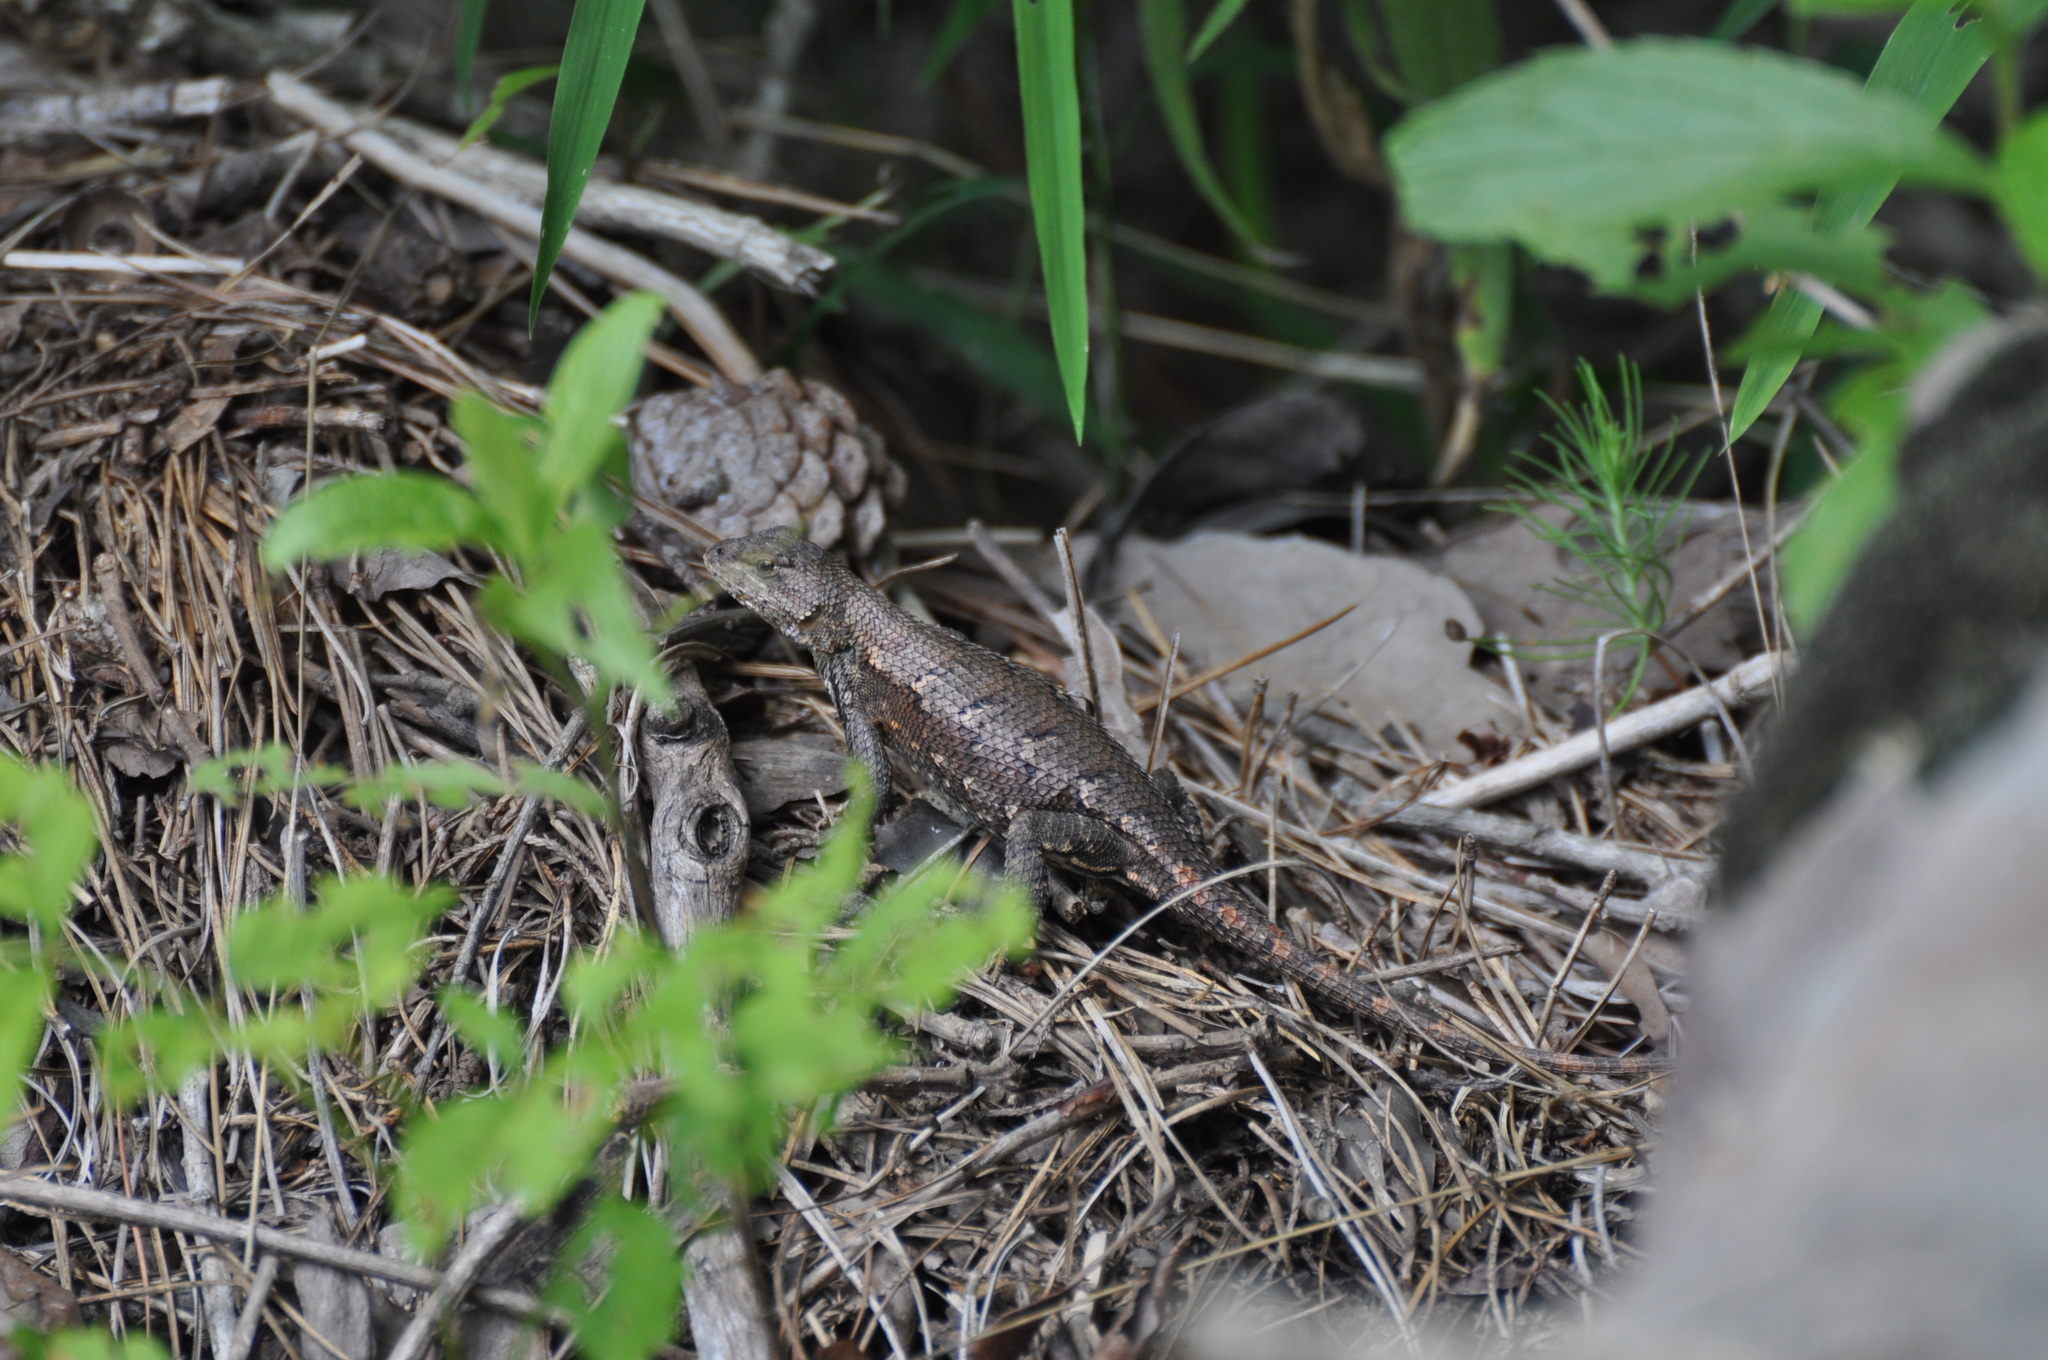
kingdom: Animalia
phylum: Chordata
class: Squamata
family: Phrynosomatidae
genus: Sceloporus
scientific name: Sceloporus consobrinus
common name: Southern prairie lizard
